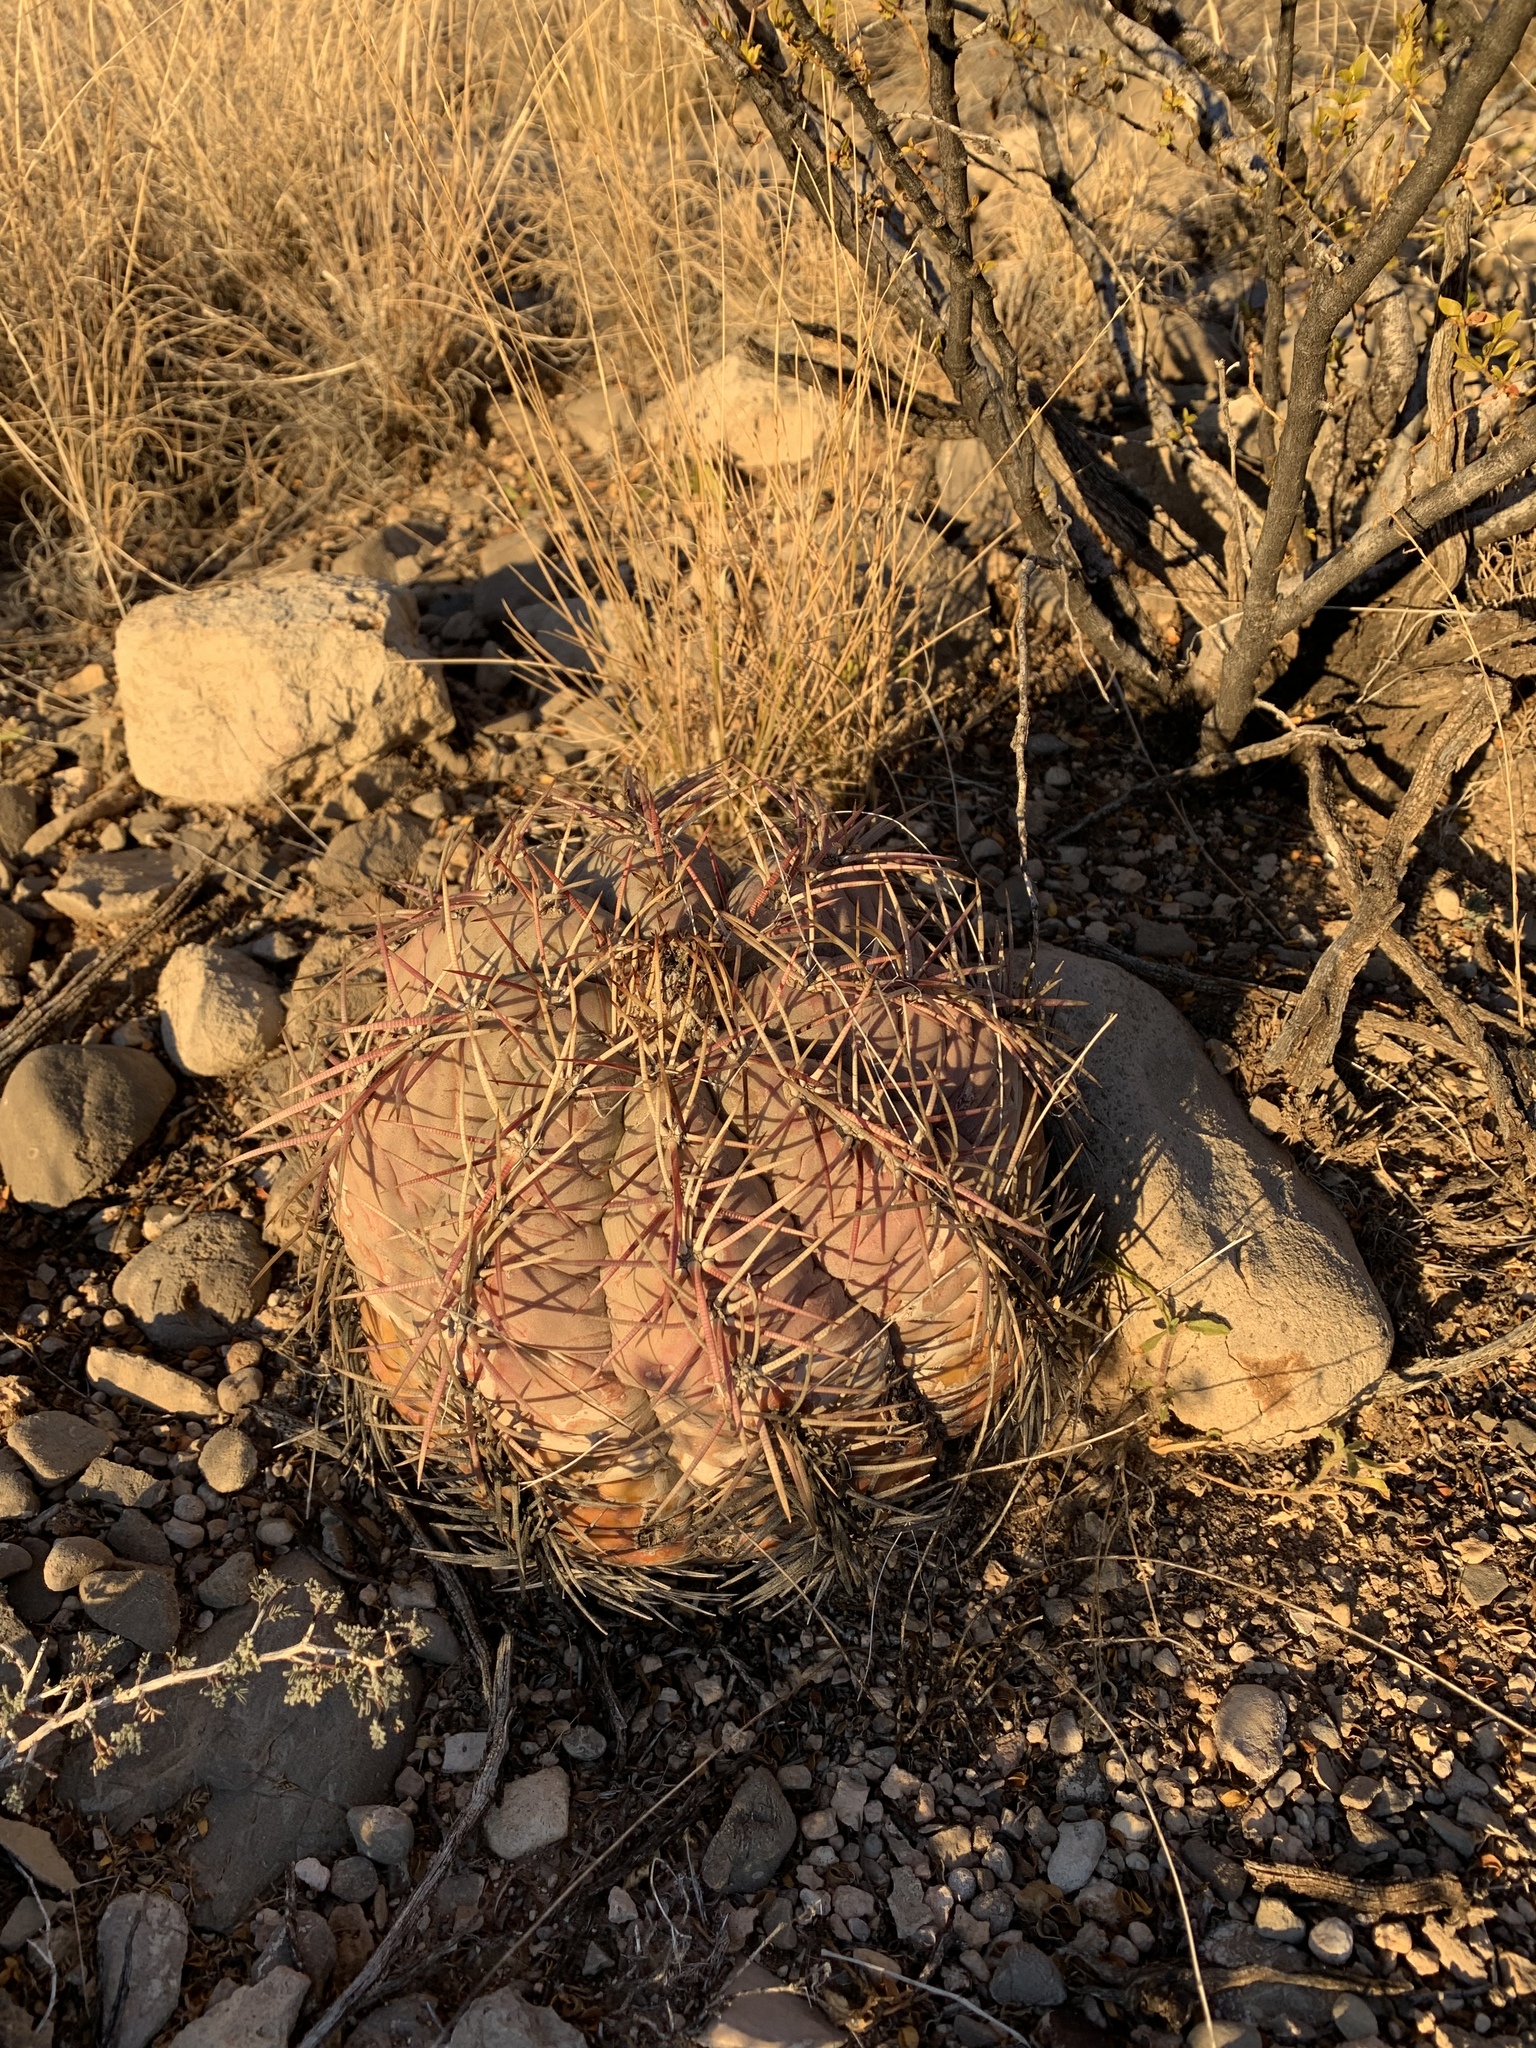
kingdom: Plantae
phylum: Tracheophyta
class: Magnoliopsida
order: Caryophyllales
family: Cactaceae
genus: Echinocactus
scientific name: Echinocactus horizonthalonius
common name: Devilshead
